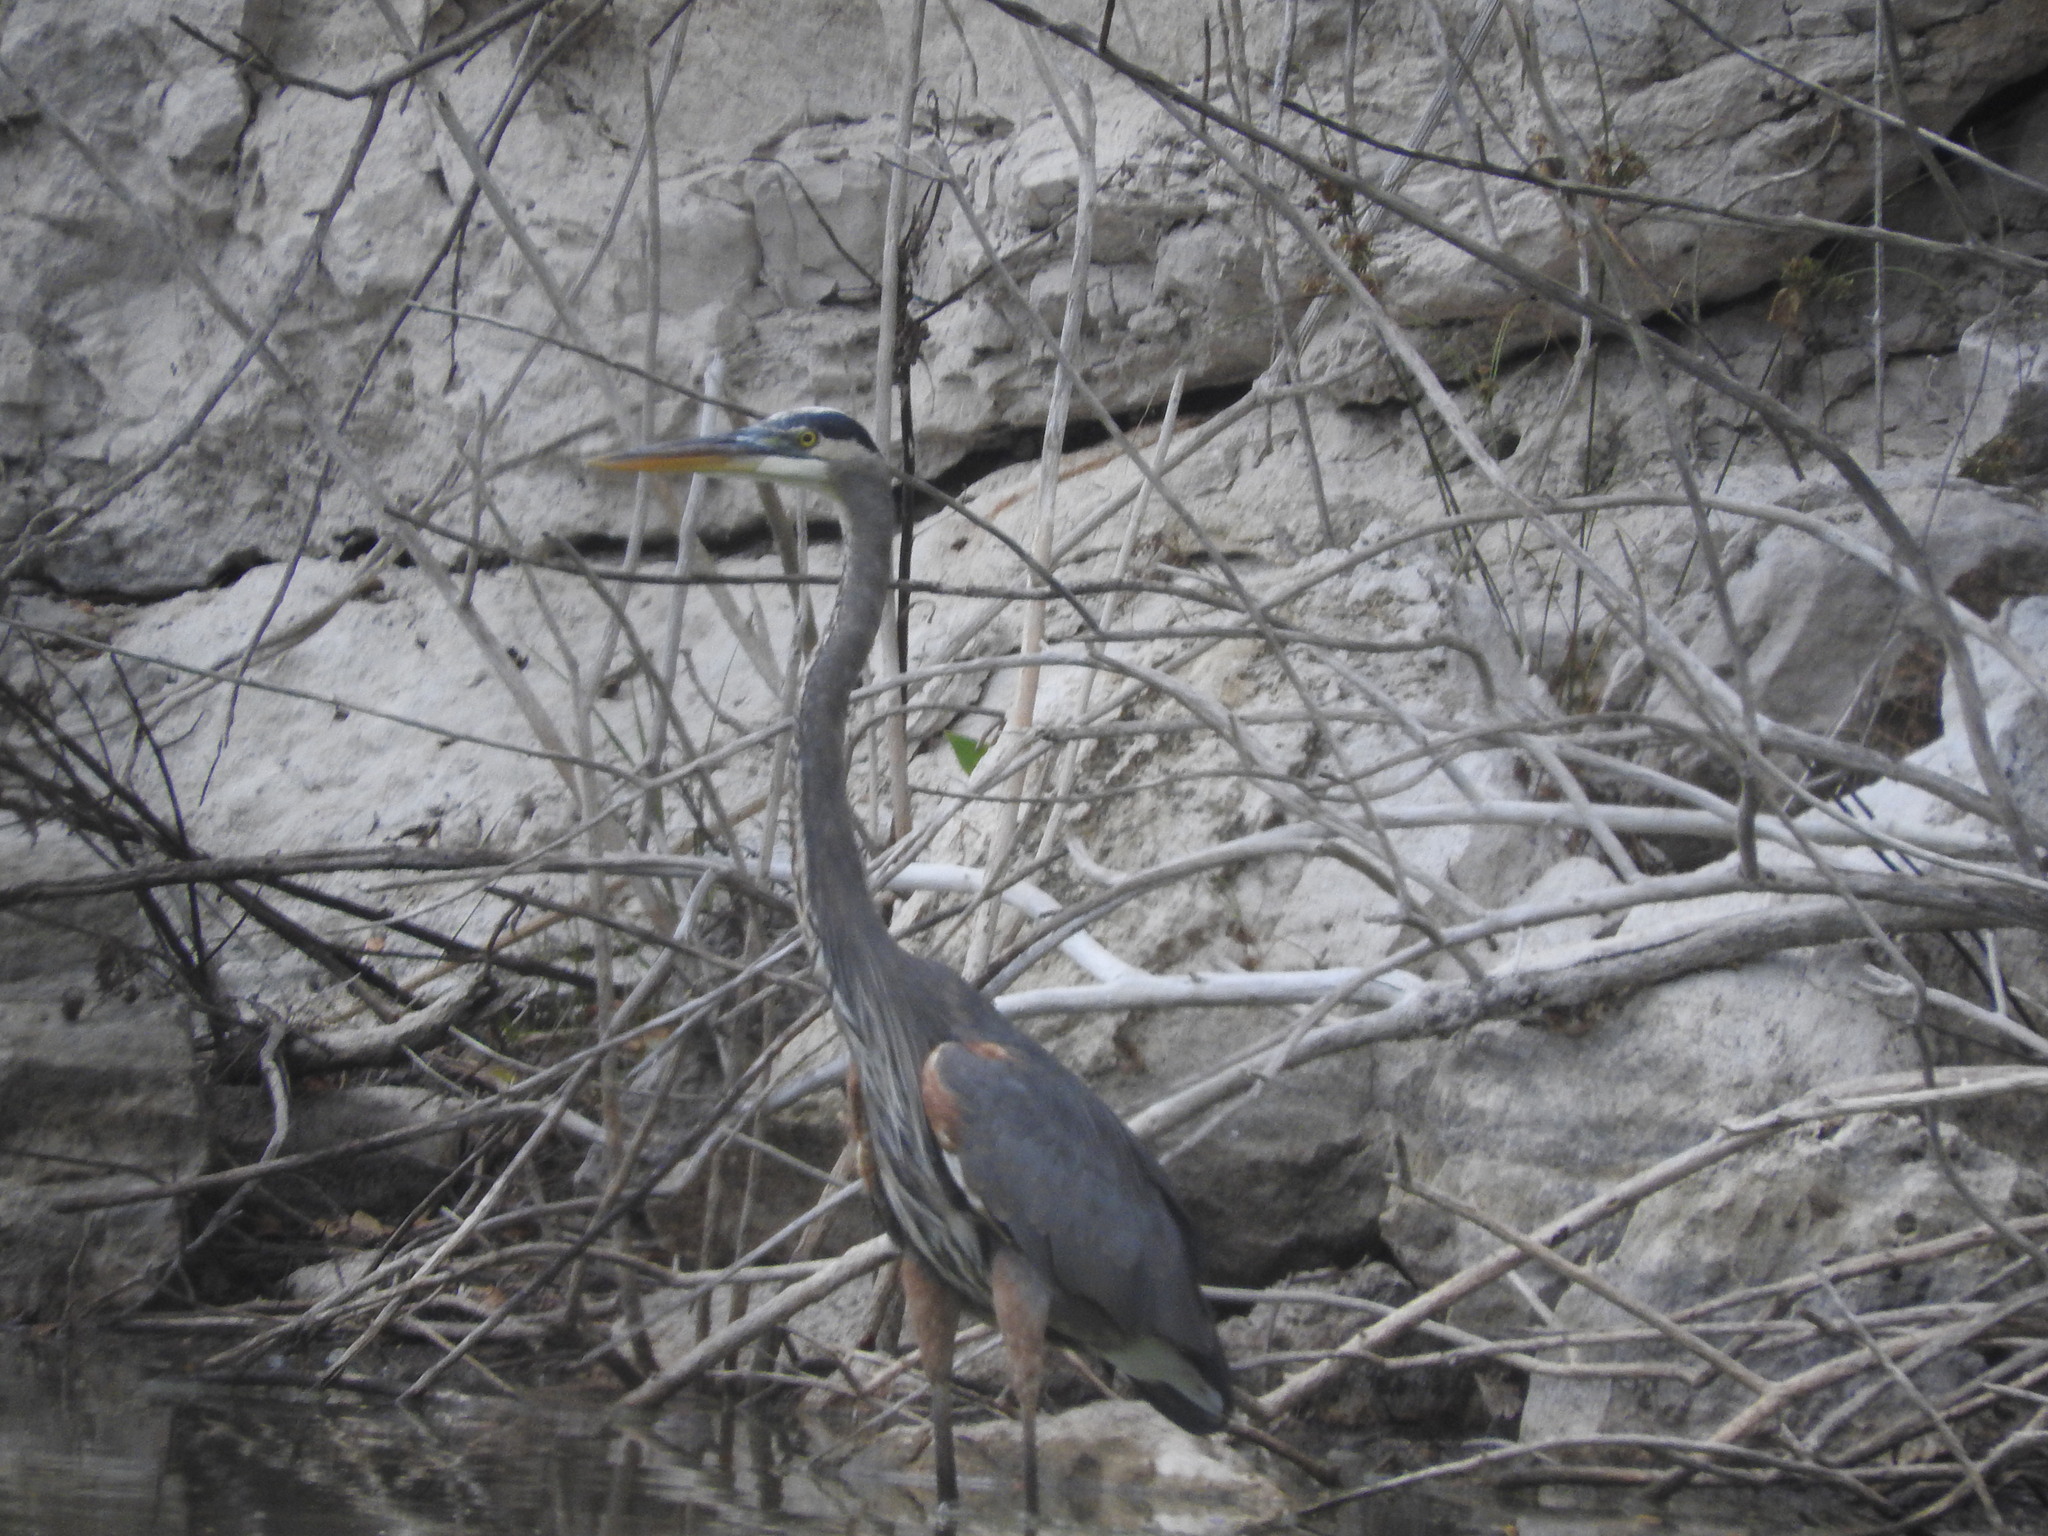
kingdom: Animalia
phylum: Chordata
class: Aves
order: Pelecaniformes
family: Ardeidae
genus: Ardea
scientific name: Ardea herodias
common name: Great blue heron
